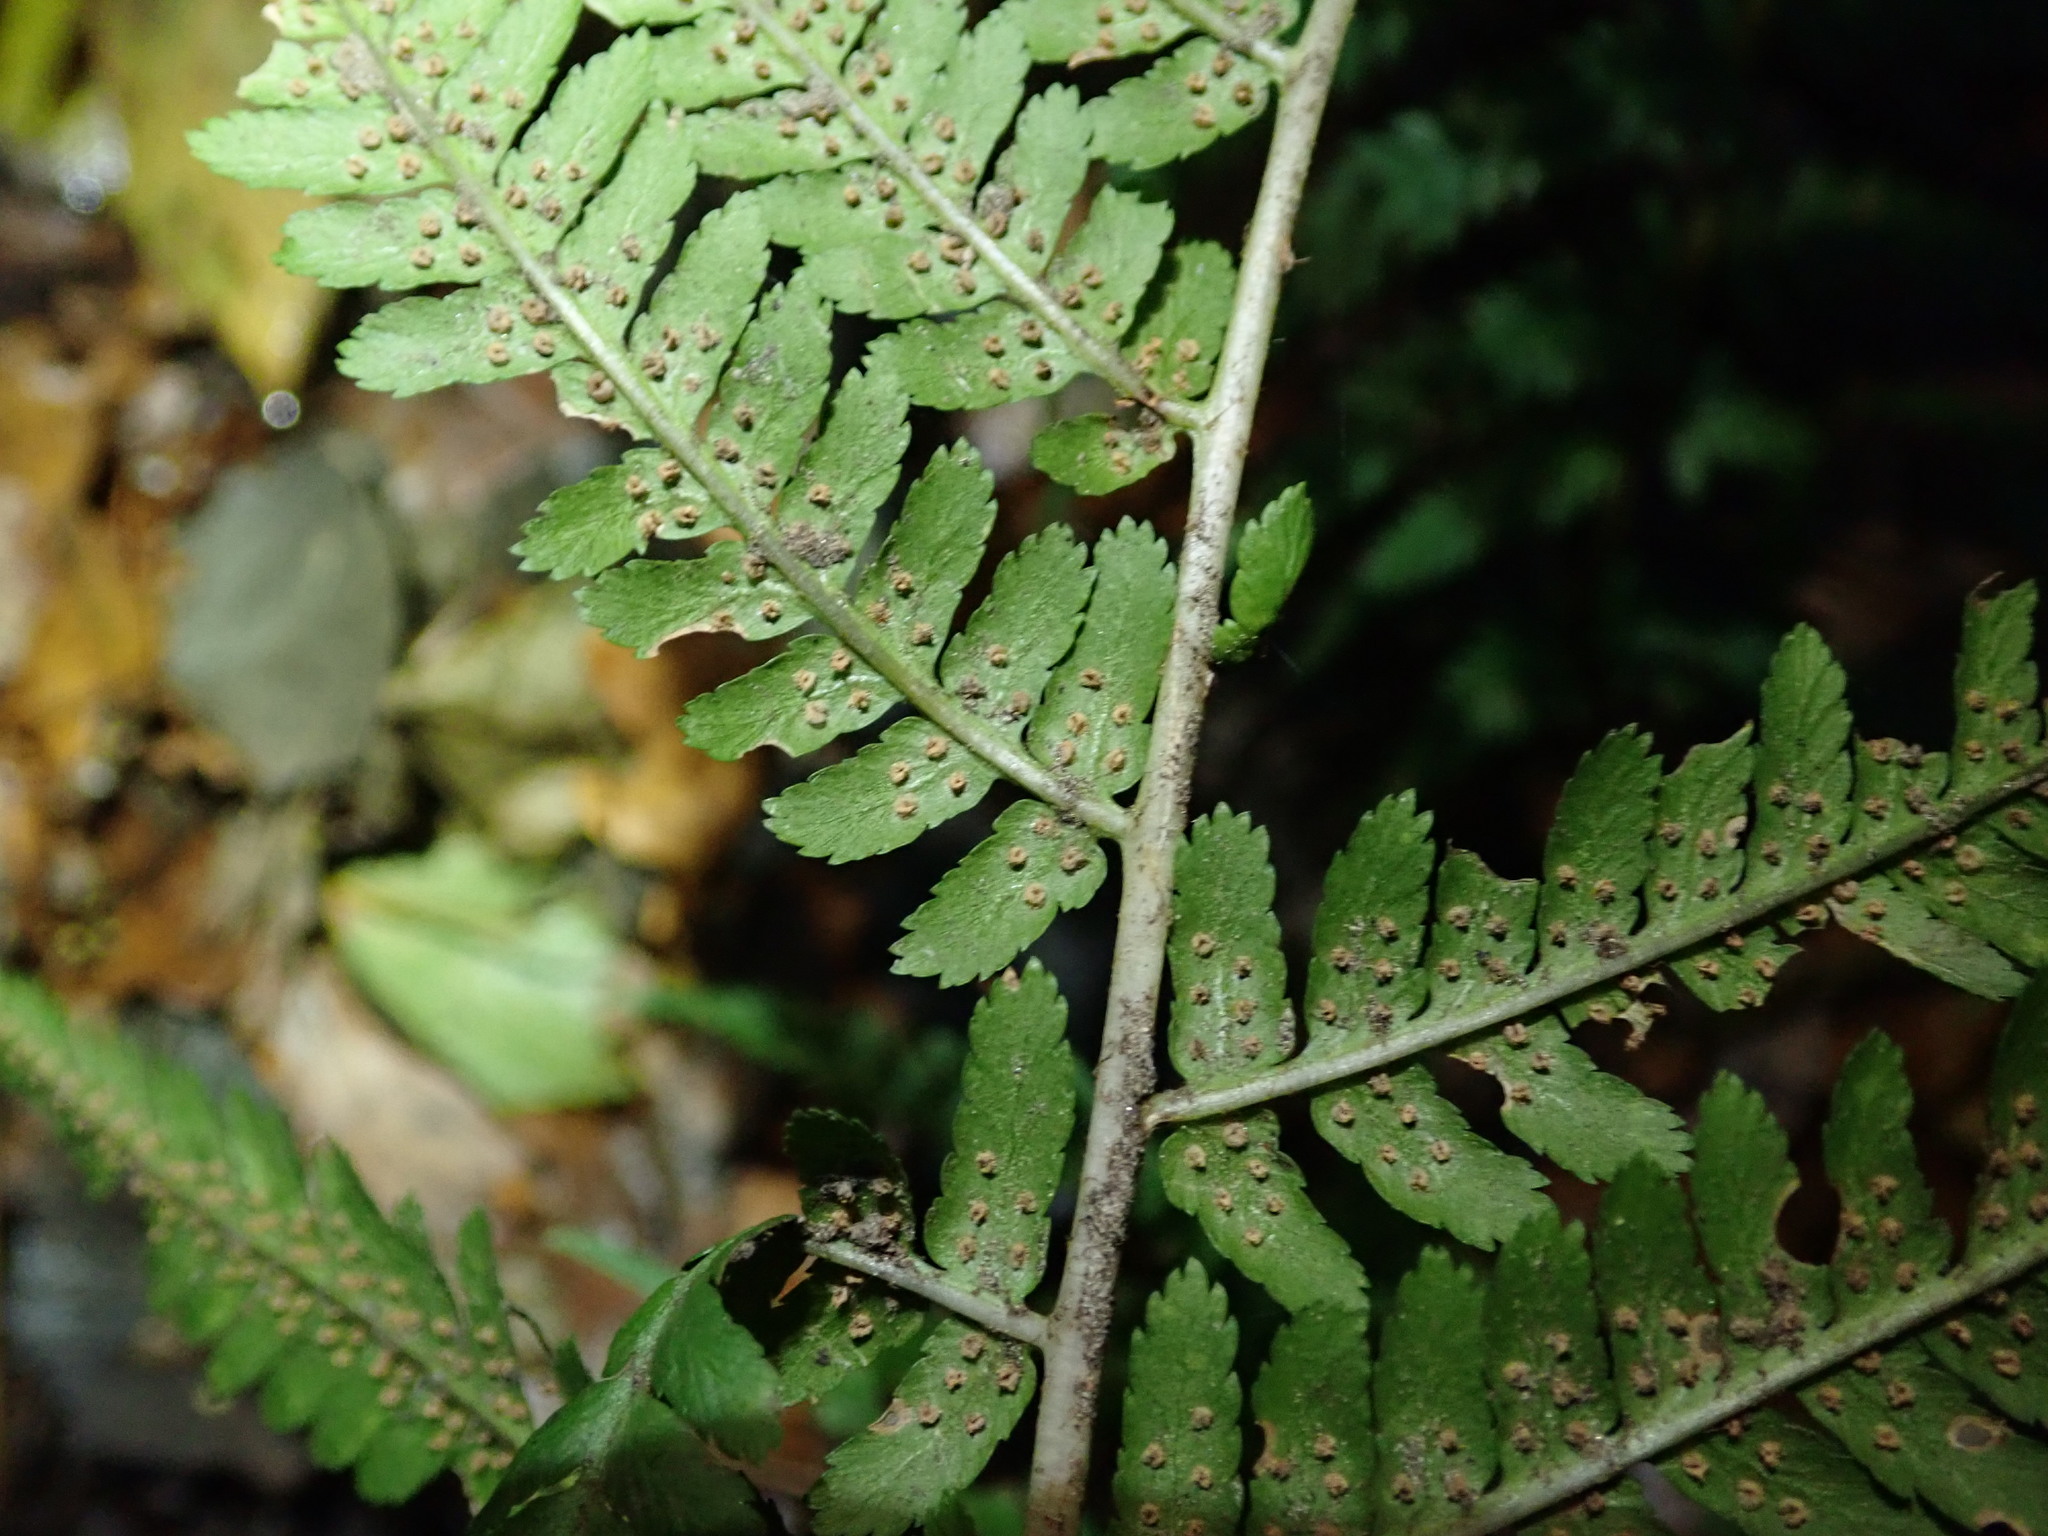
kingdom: Plantae
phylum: Tracheophyta
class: Polypodiopsida
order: Polypodiales
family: Dryopteridaceae
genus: Dryopteris
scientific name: Dryopteris filix-mas
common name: Male fern
